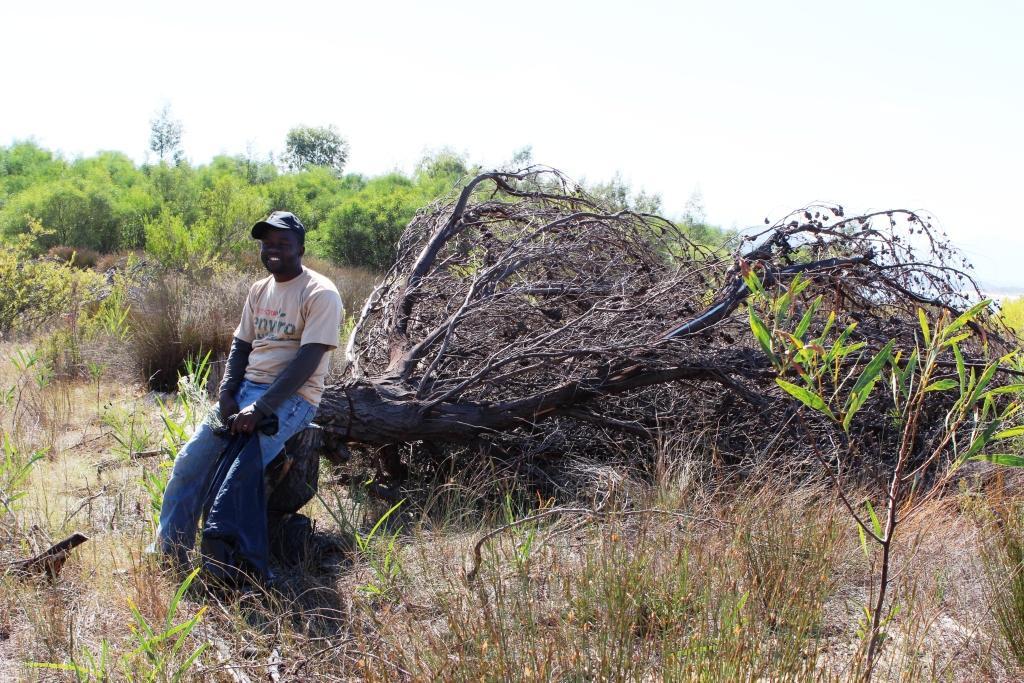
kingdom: Plantae
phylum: Tracheophyta
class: Magnoliopsida
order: Fabales
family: Fabaceae
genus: Acacia
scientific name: Acacia saligna
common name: Orange wattle
